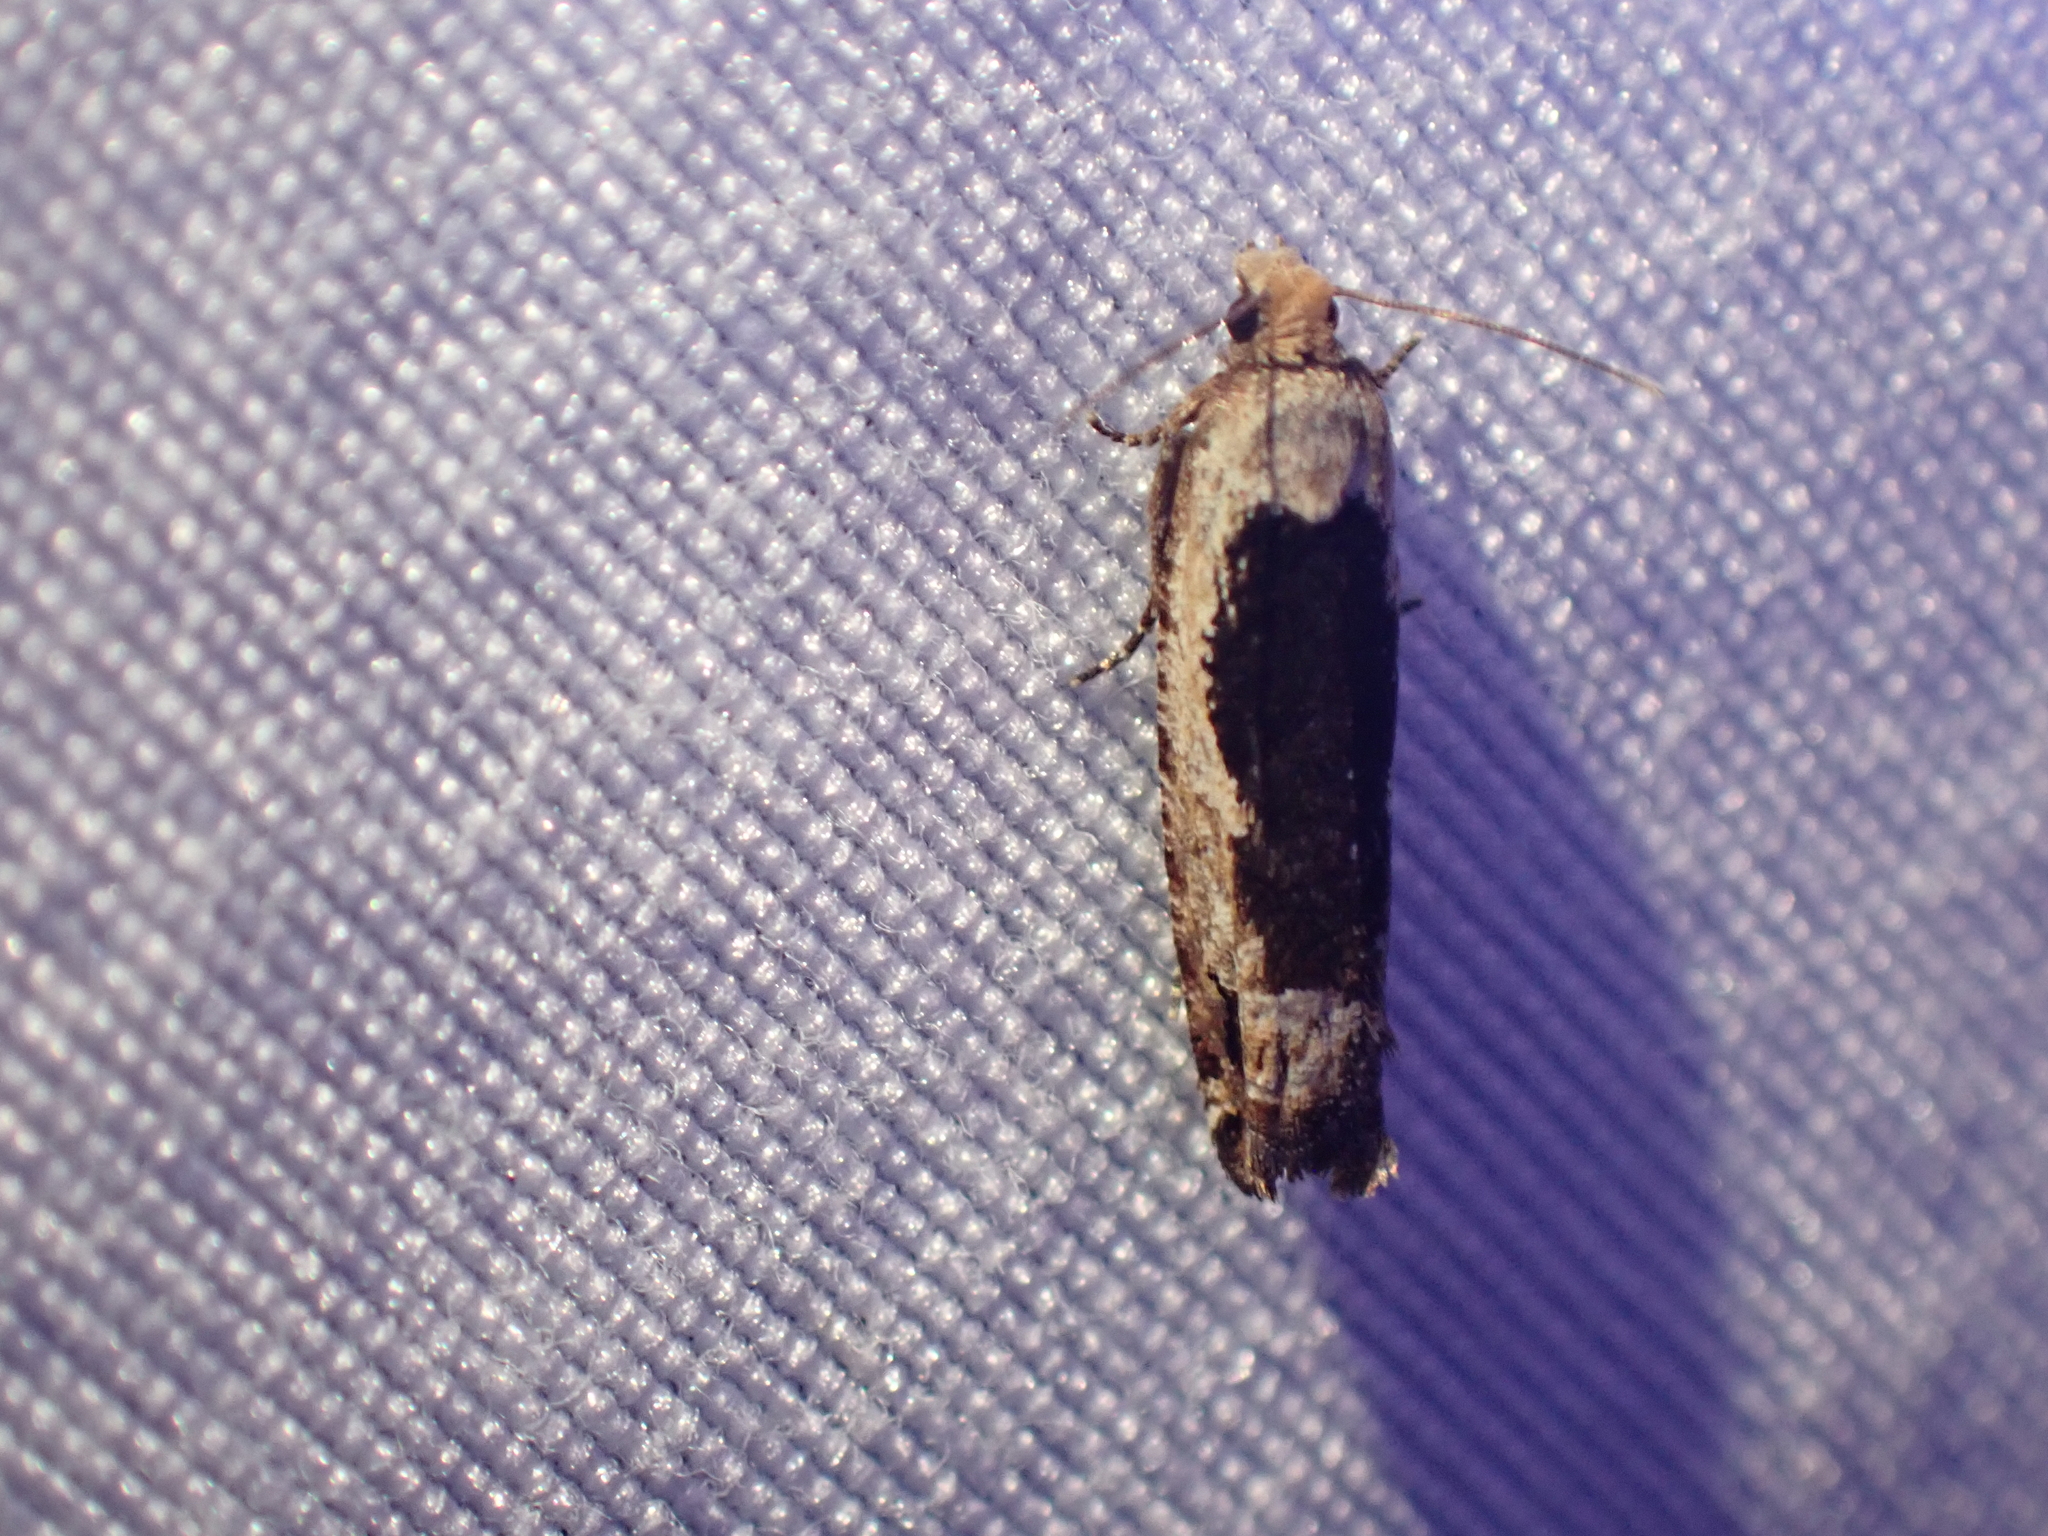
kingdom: Animalia
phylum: Arthropoda
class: Insecta
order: Lepidoptera
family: Tortricidae
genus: Epinotia
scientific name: Epinotia emarginana
